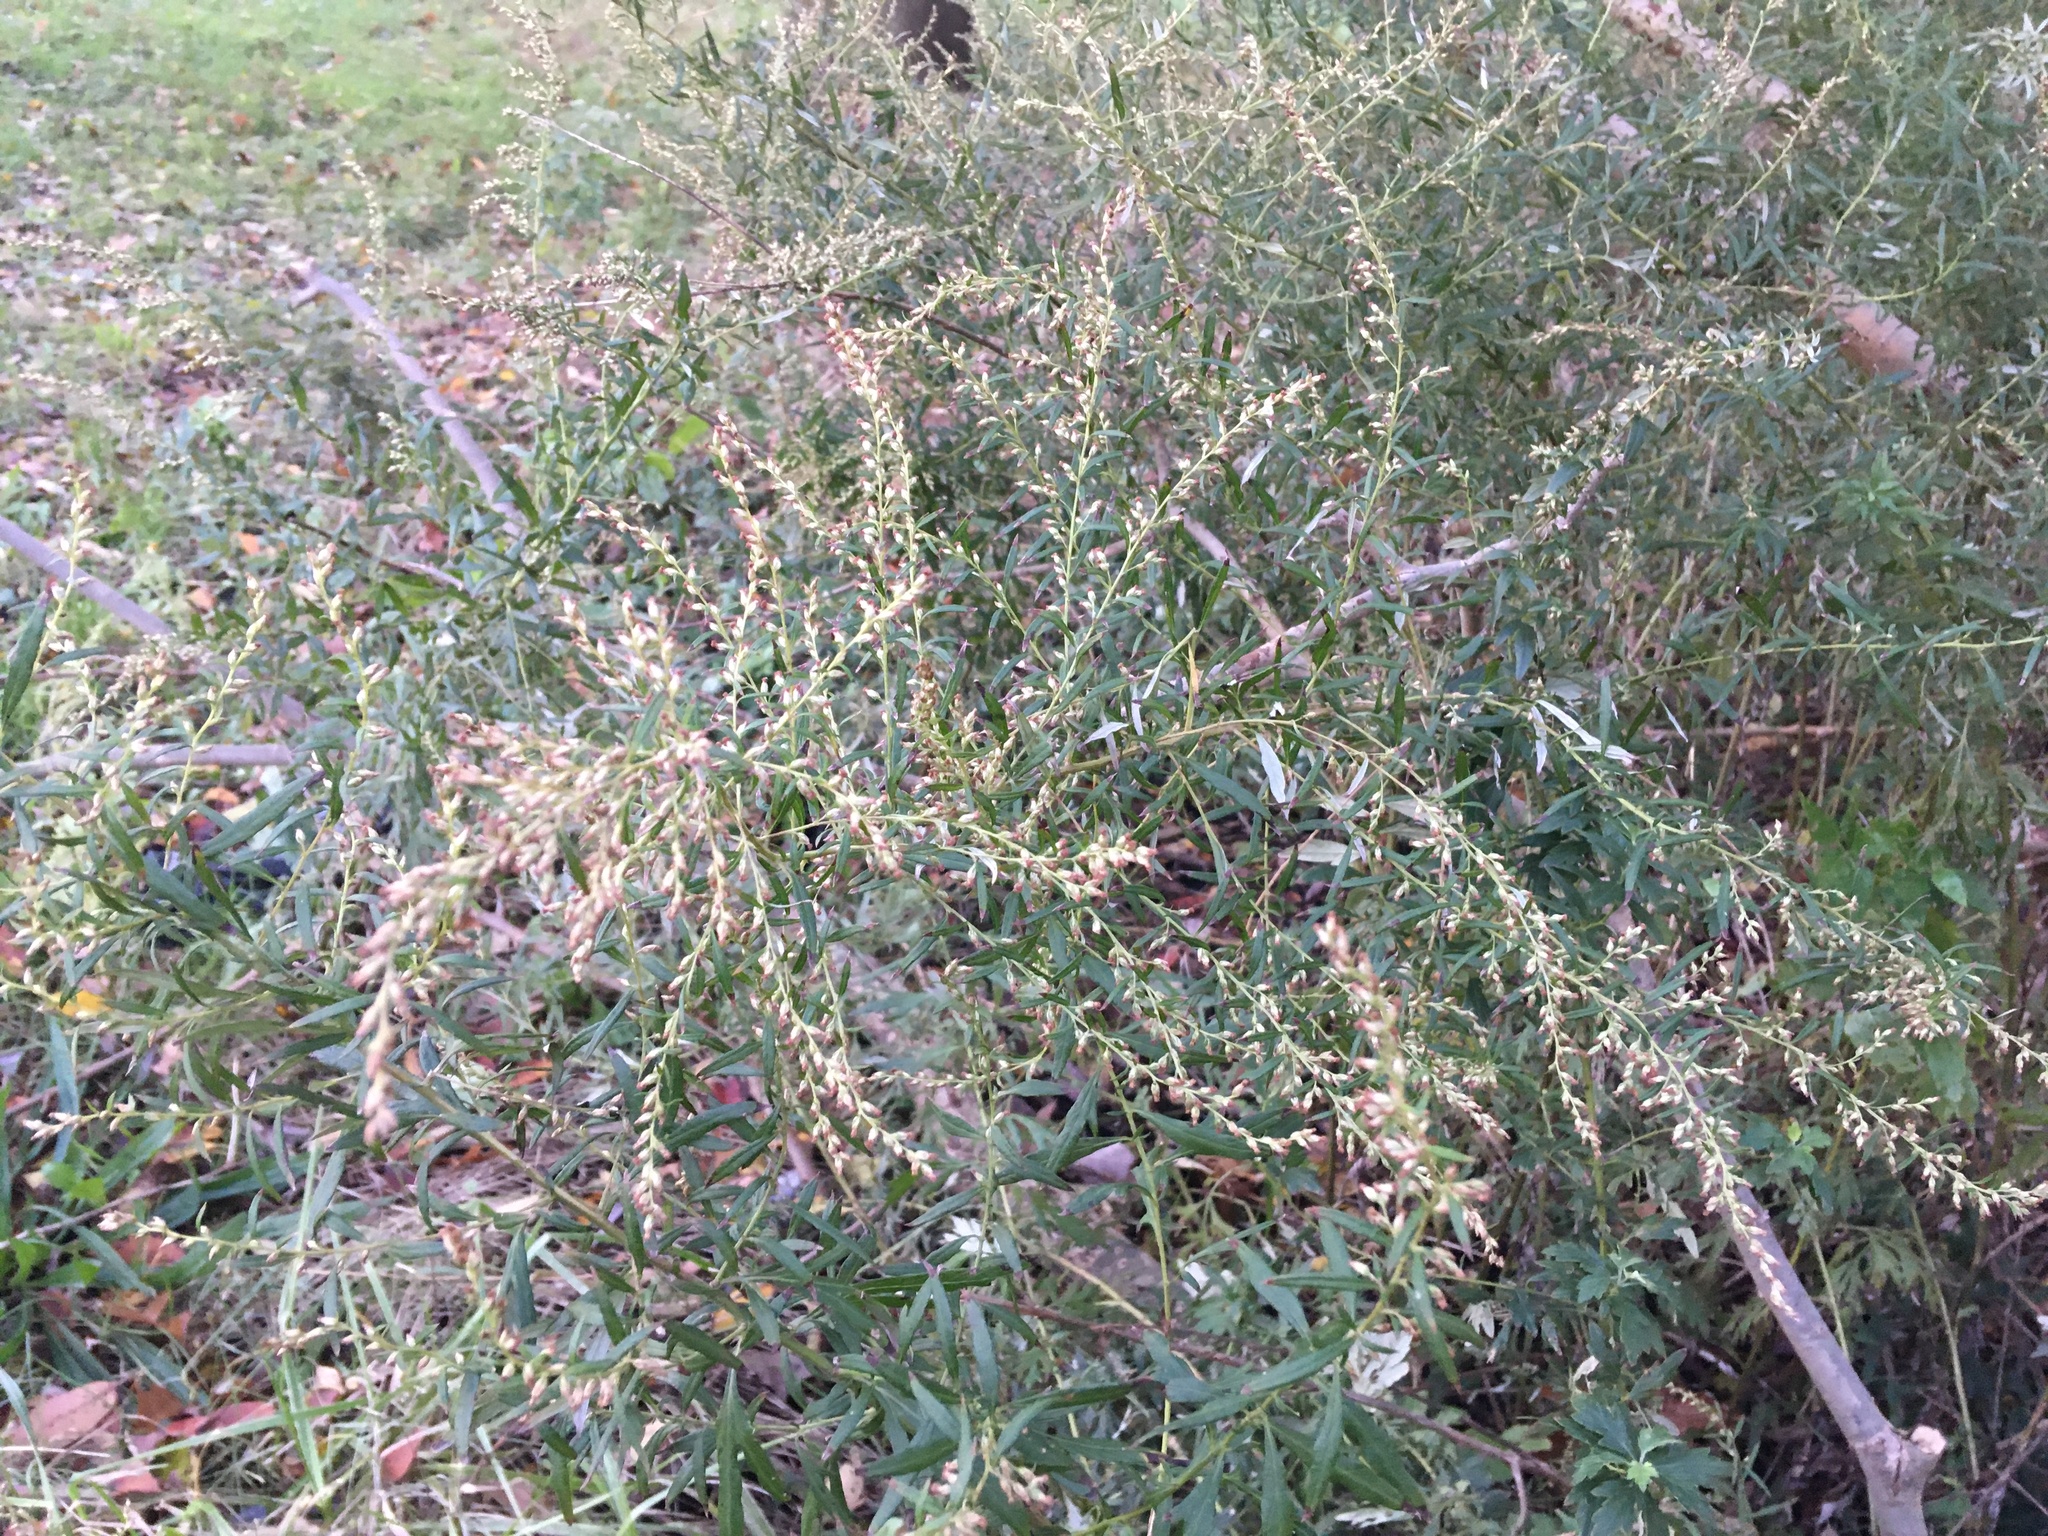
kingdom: Plantae
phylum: Tracheophyta
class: Magnoliopsida
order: Asterales
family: Asteraceae
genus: Artemisia
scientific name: Artemisia vulgaris
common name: Mugwort
